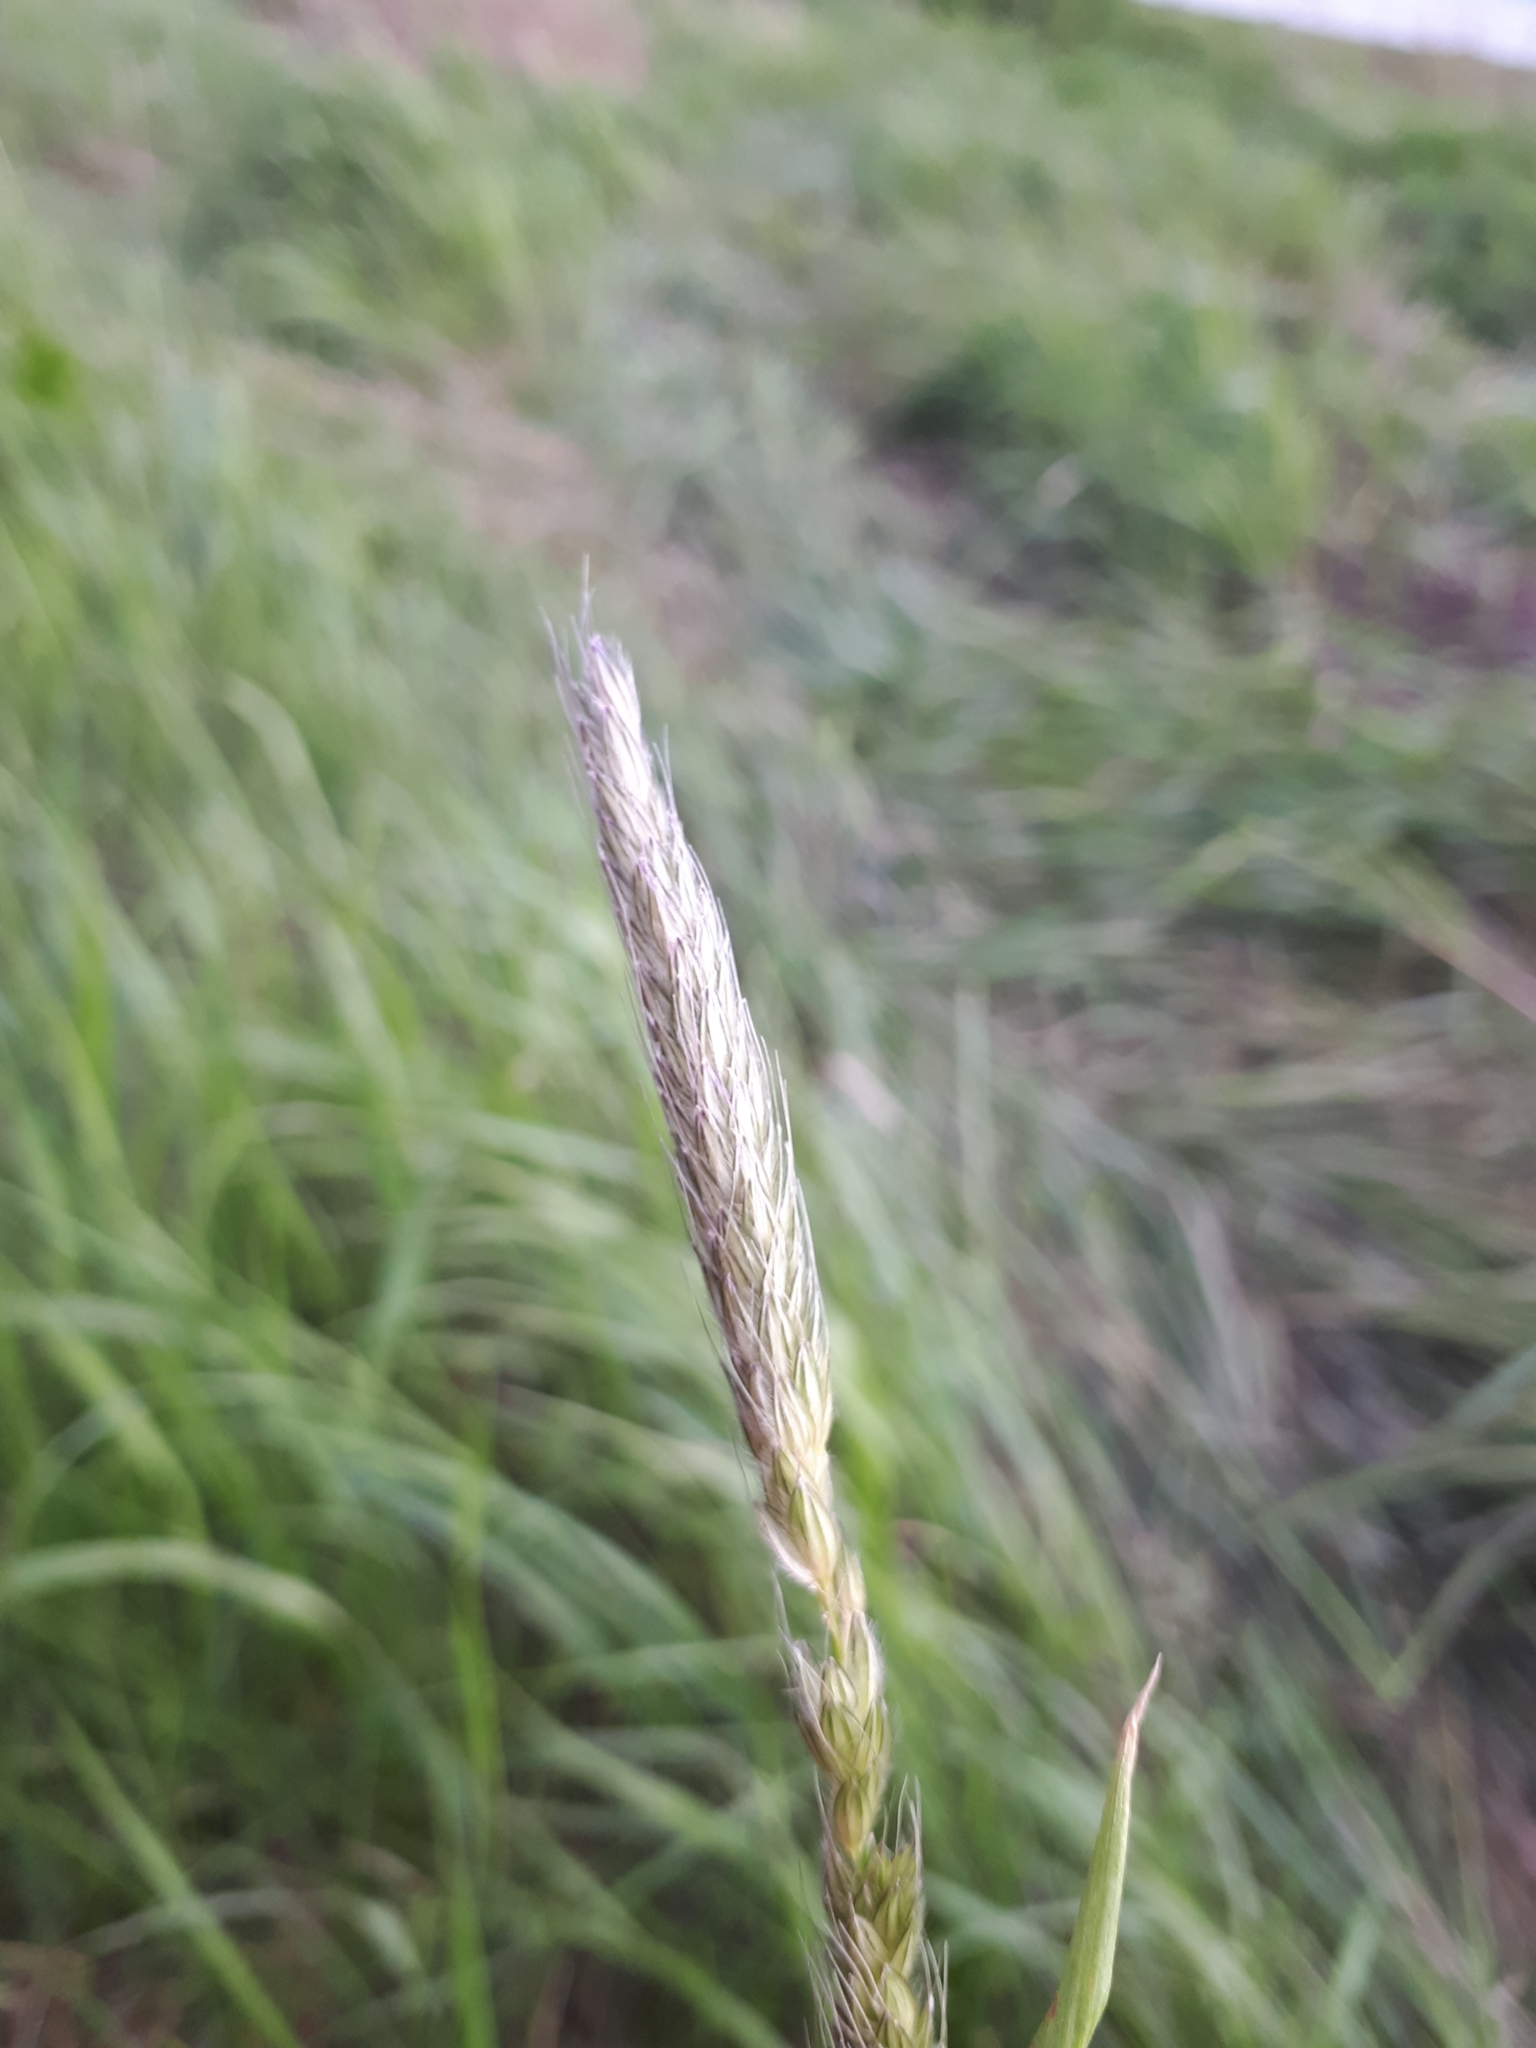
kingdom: Plantae
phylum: Tracheophyta
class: Liliopsida
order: Poales
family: Poaceae
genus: Alopecurus
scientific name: Alopecurus pratensis
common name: Meadow foxtail
